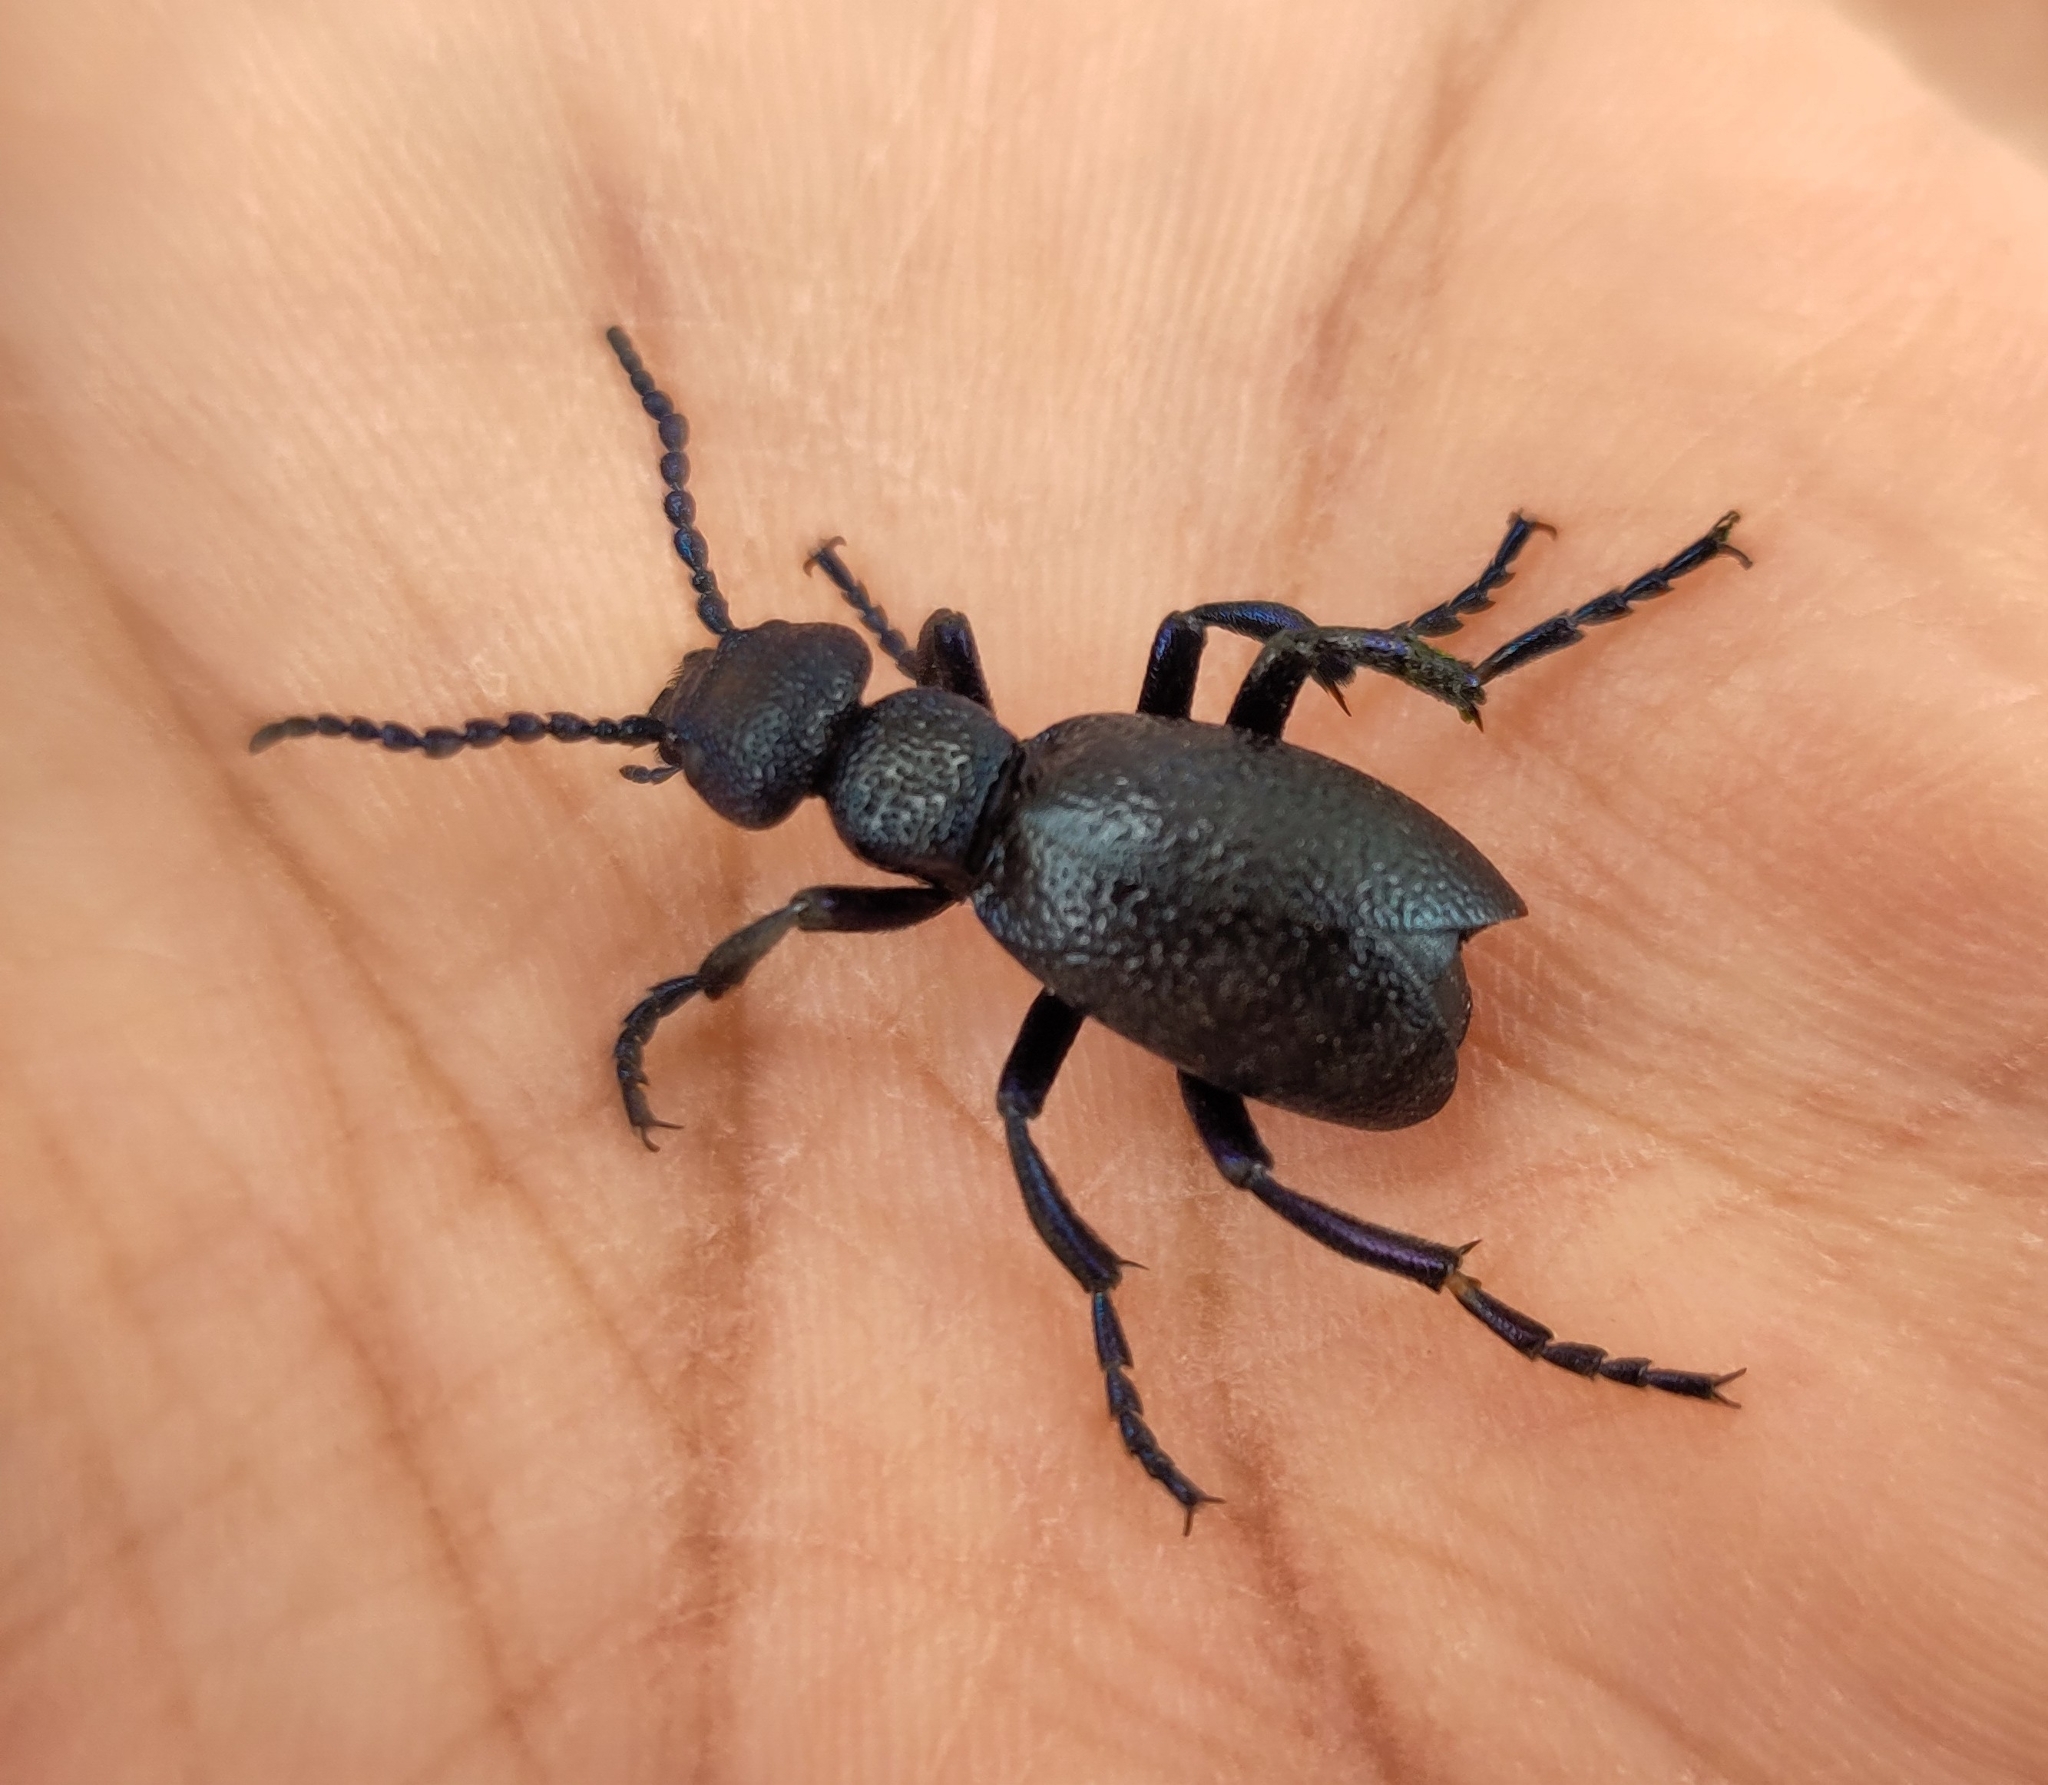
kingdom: Animalia
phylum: Arthropoda
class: Insecta
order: Coleoptera
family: Meloidae
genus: Meloe
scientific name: Meloe proscarabaeus
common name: Black oil-beetle
